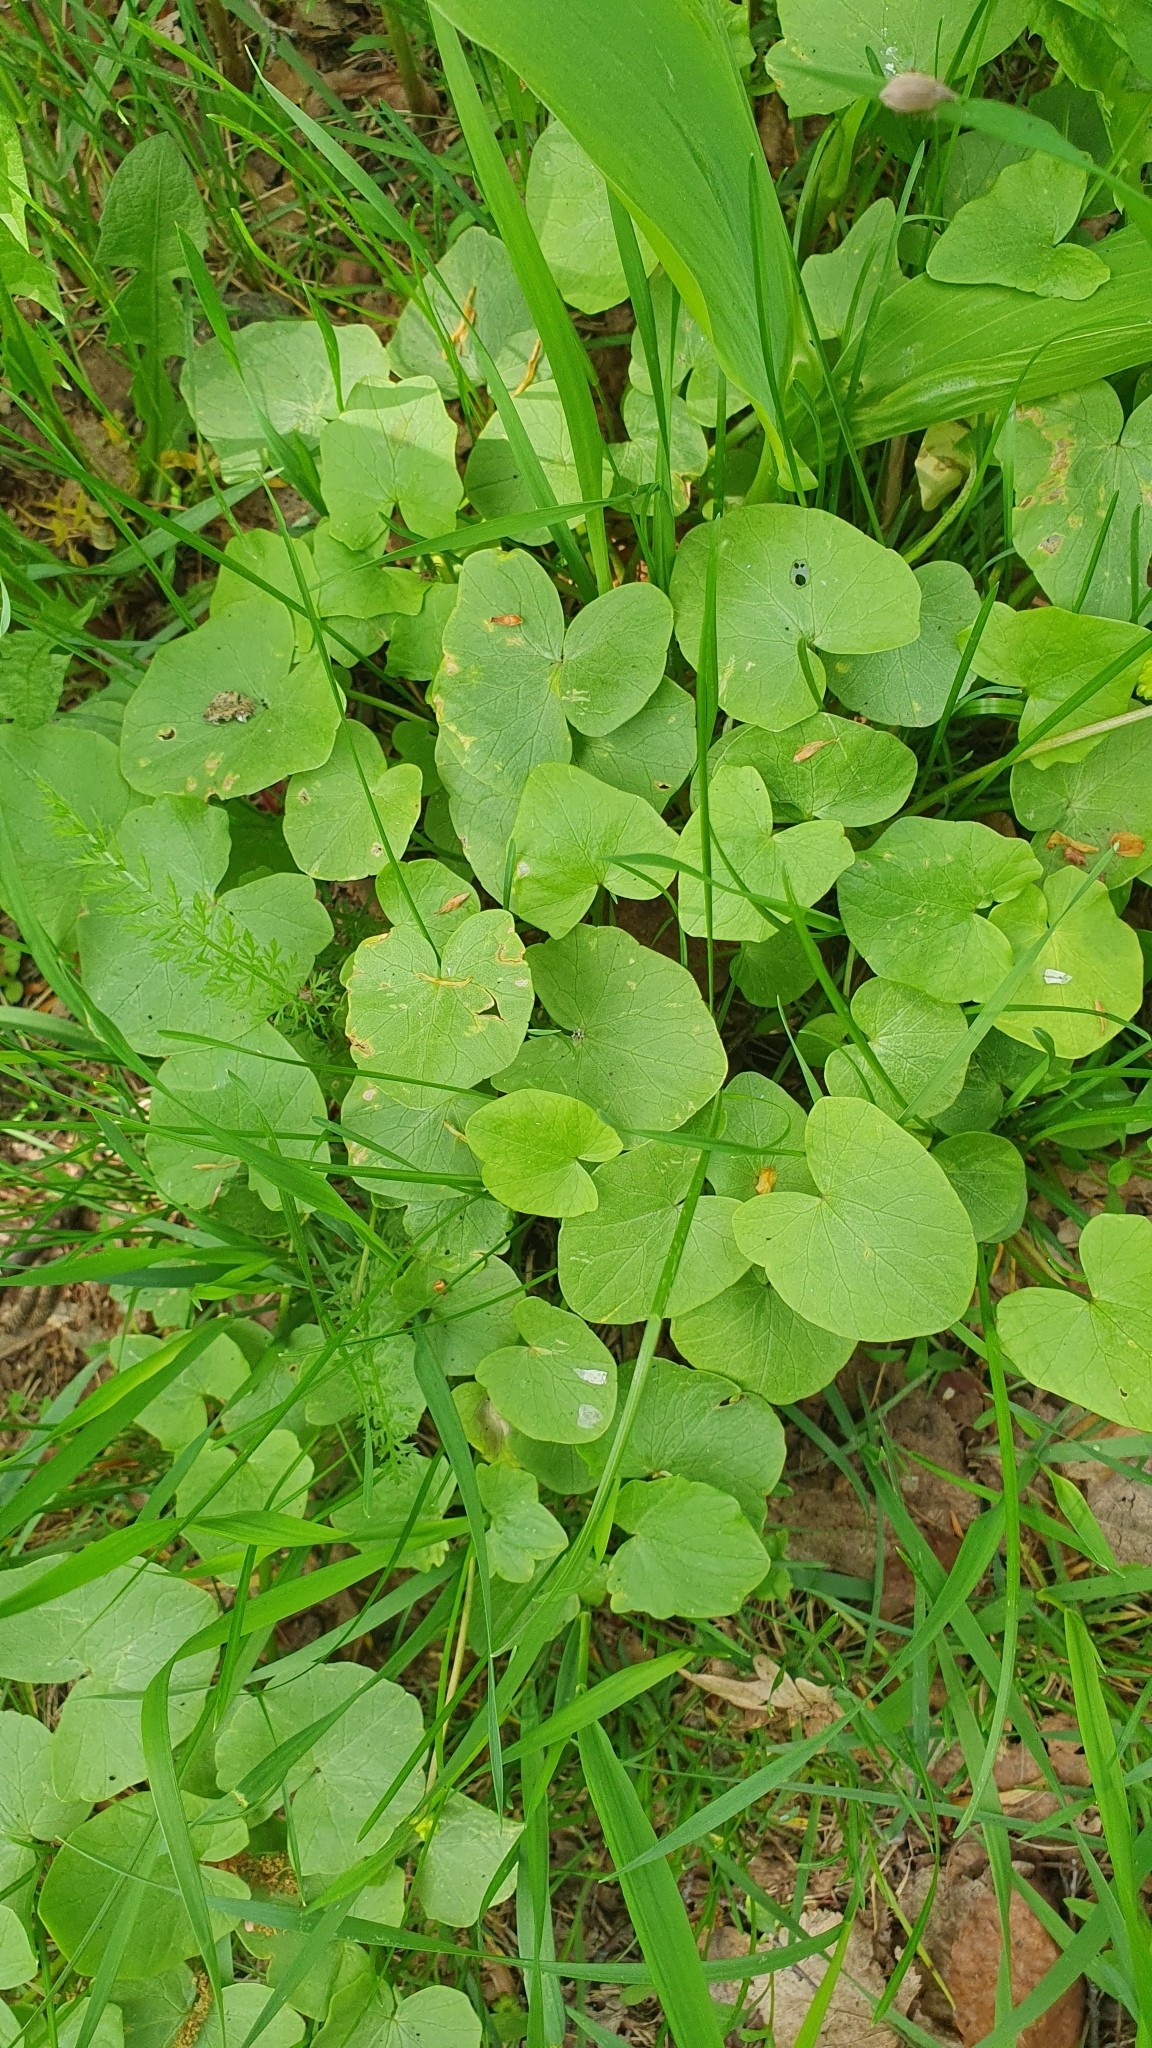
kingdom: Plantae
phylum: Tracheophyta
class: Magnoliopsida
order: Ranunculales
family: Ranunculaceae
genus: Ficaria
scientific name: Ficaria verna
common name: Lesser celandine
